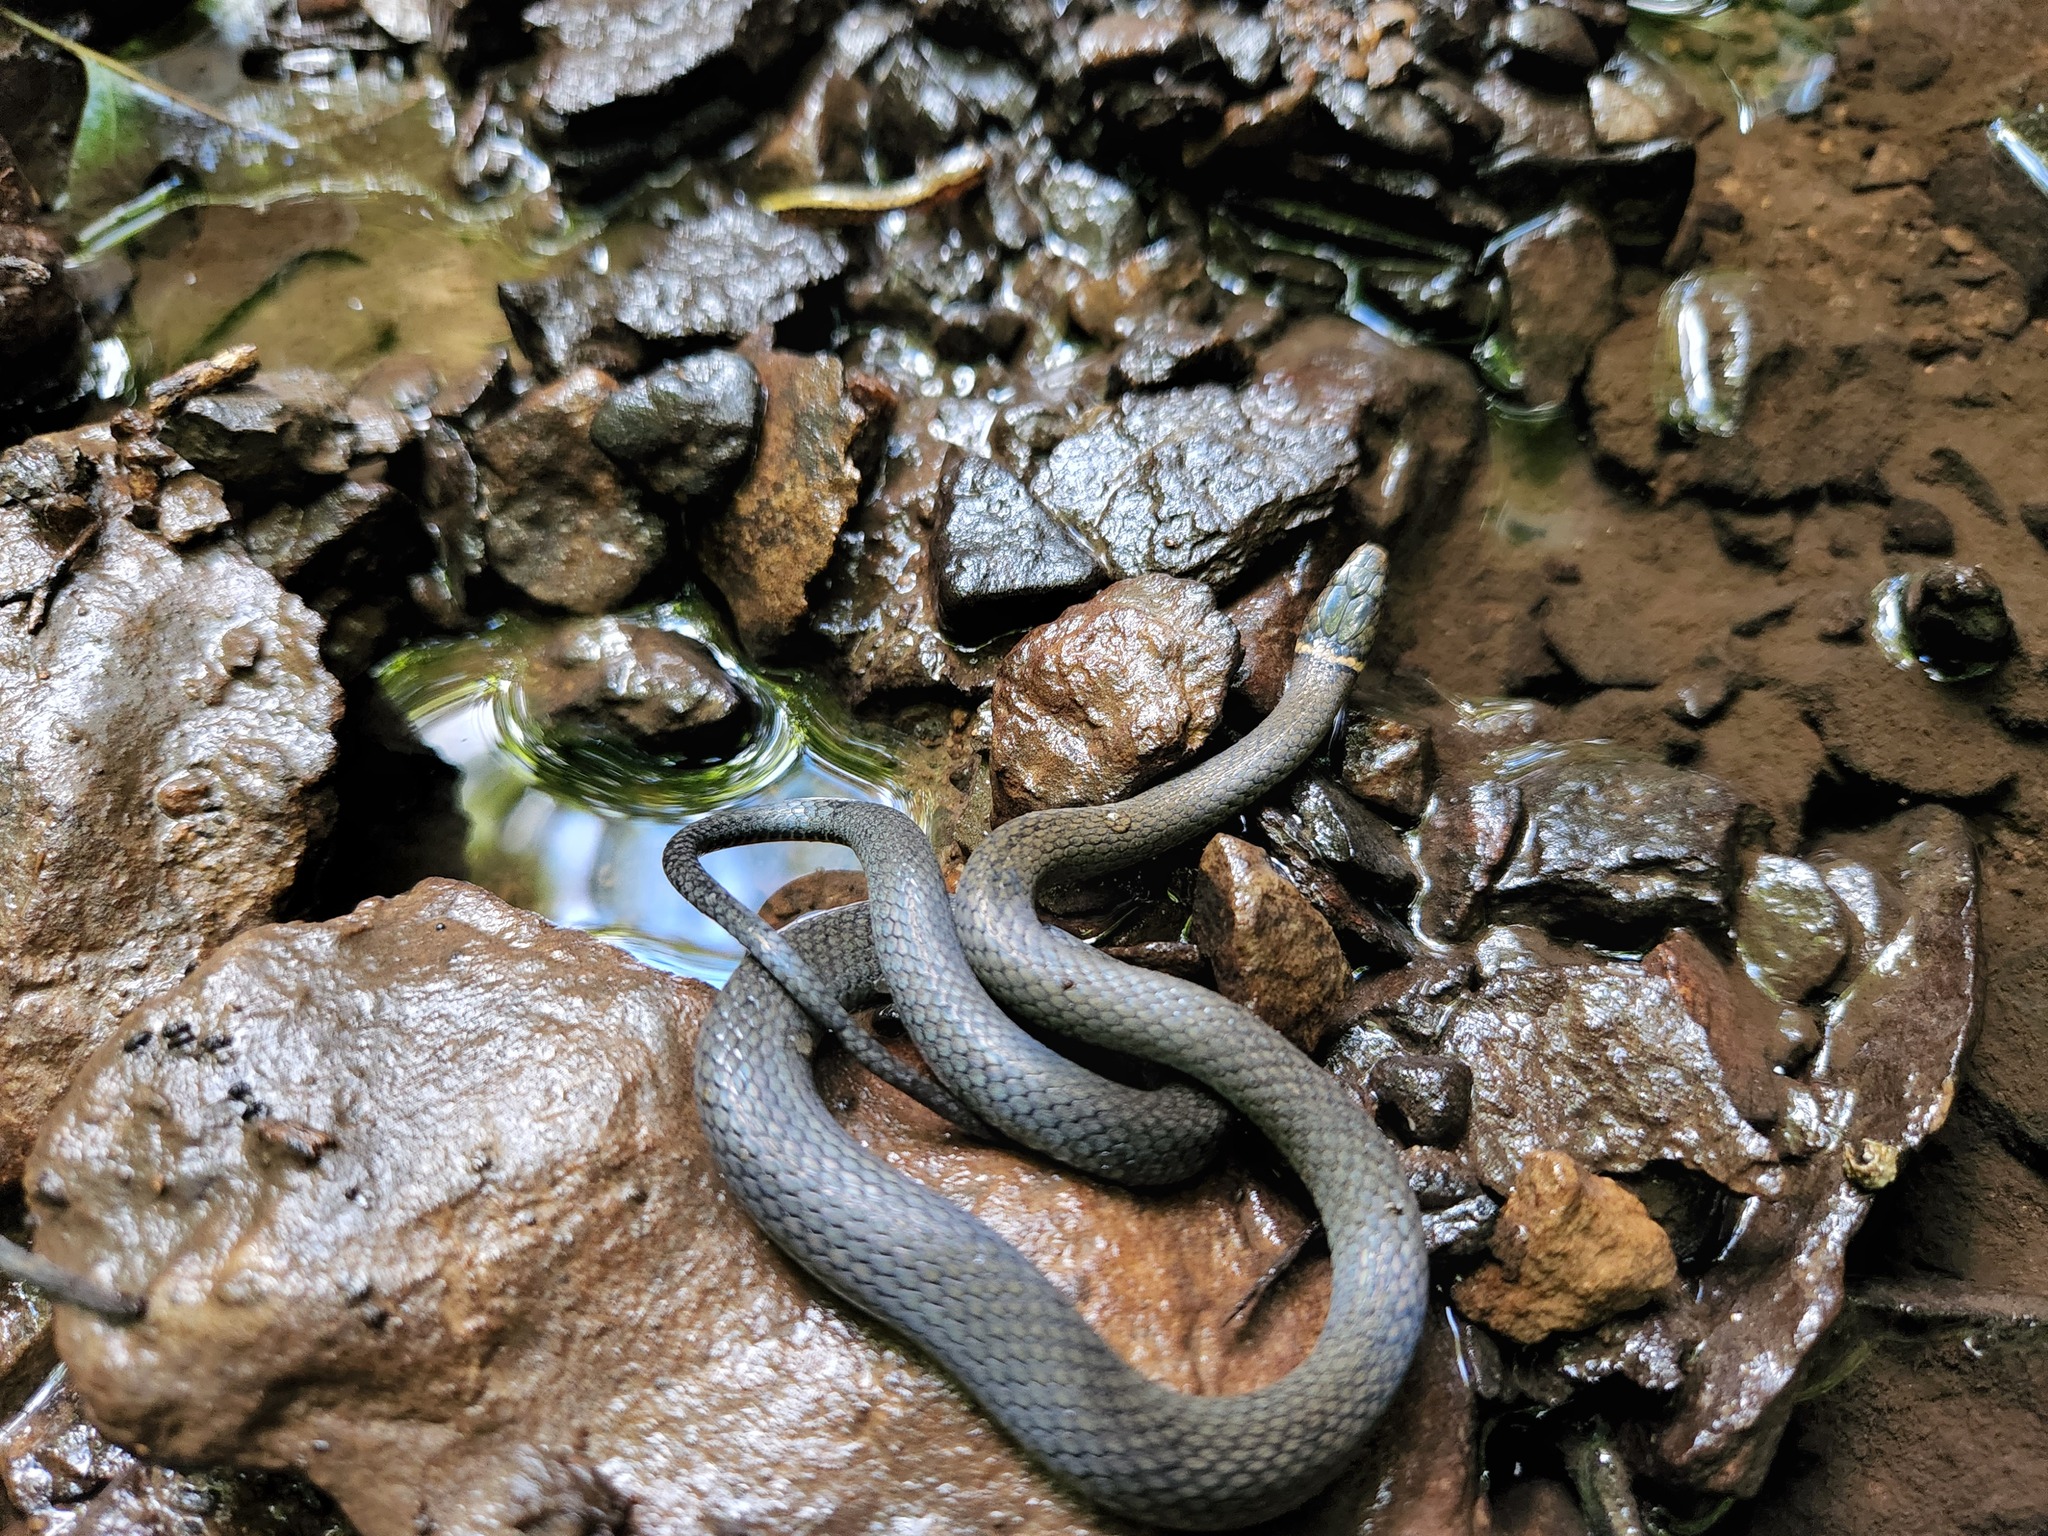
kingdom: Animalia
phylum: Chordata
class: Squamata
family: Colubridae
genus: Diadophis
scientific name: Diadophis punctatus
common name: Ringneck snake
